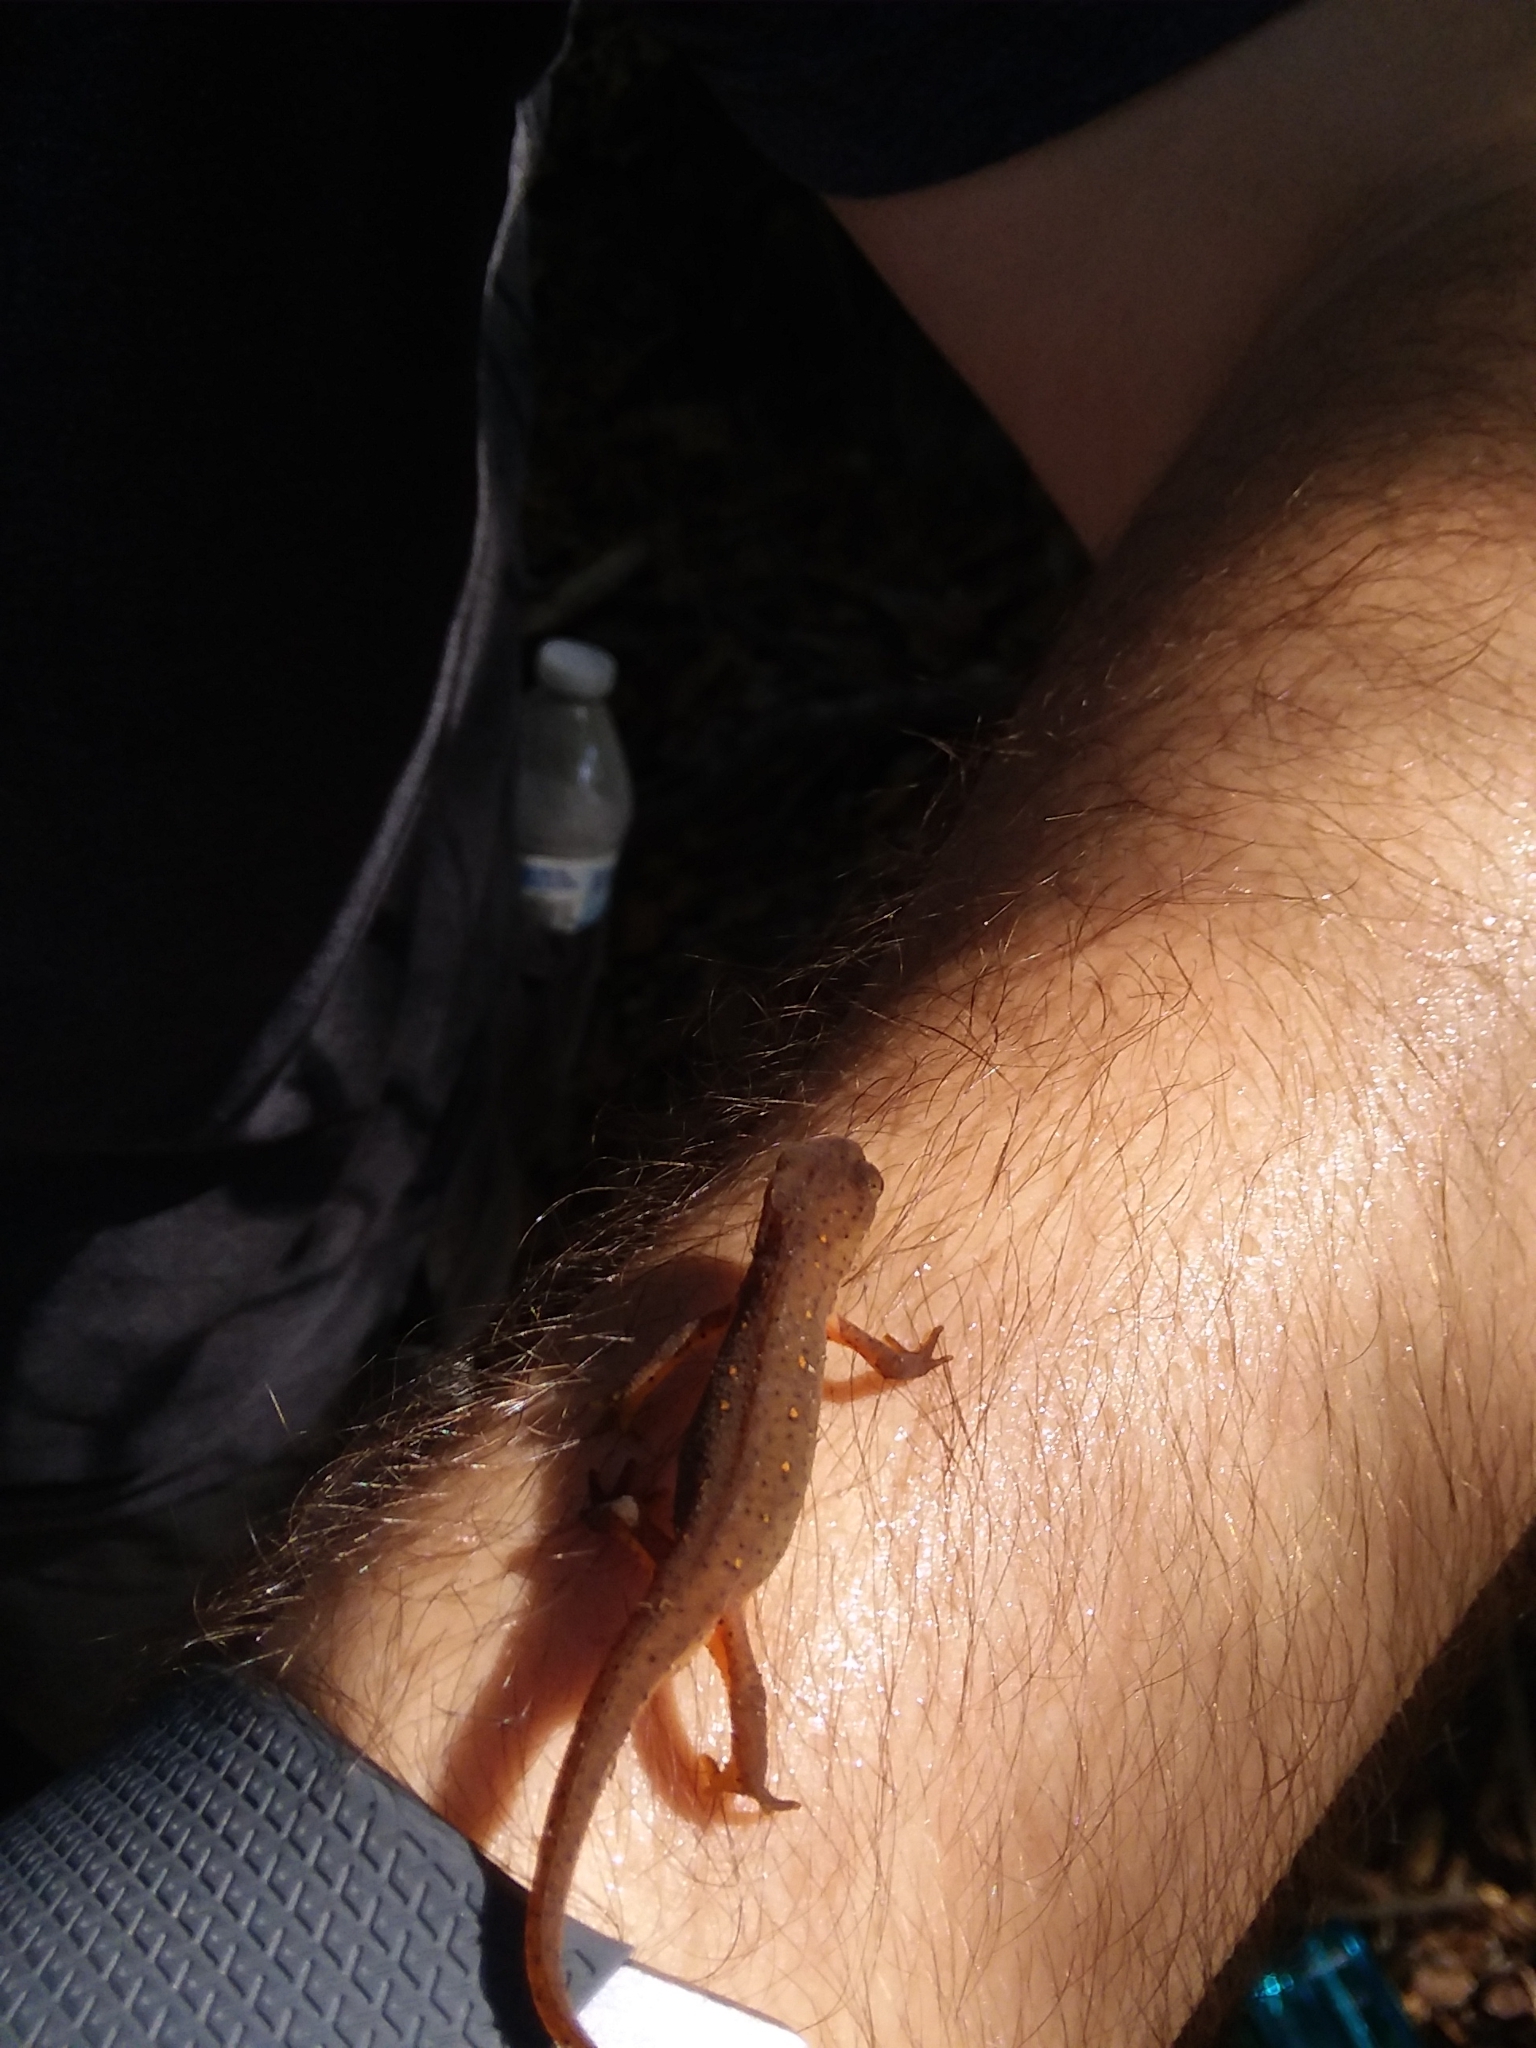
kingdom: Animalia
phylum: Chordata
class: Amphibia
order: Caudata
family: Salamandridae
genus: Notophthalmus
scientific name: Notophthalmus viridescens
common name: Eastern newt
